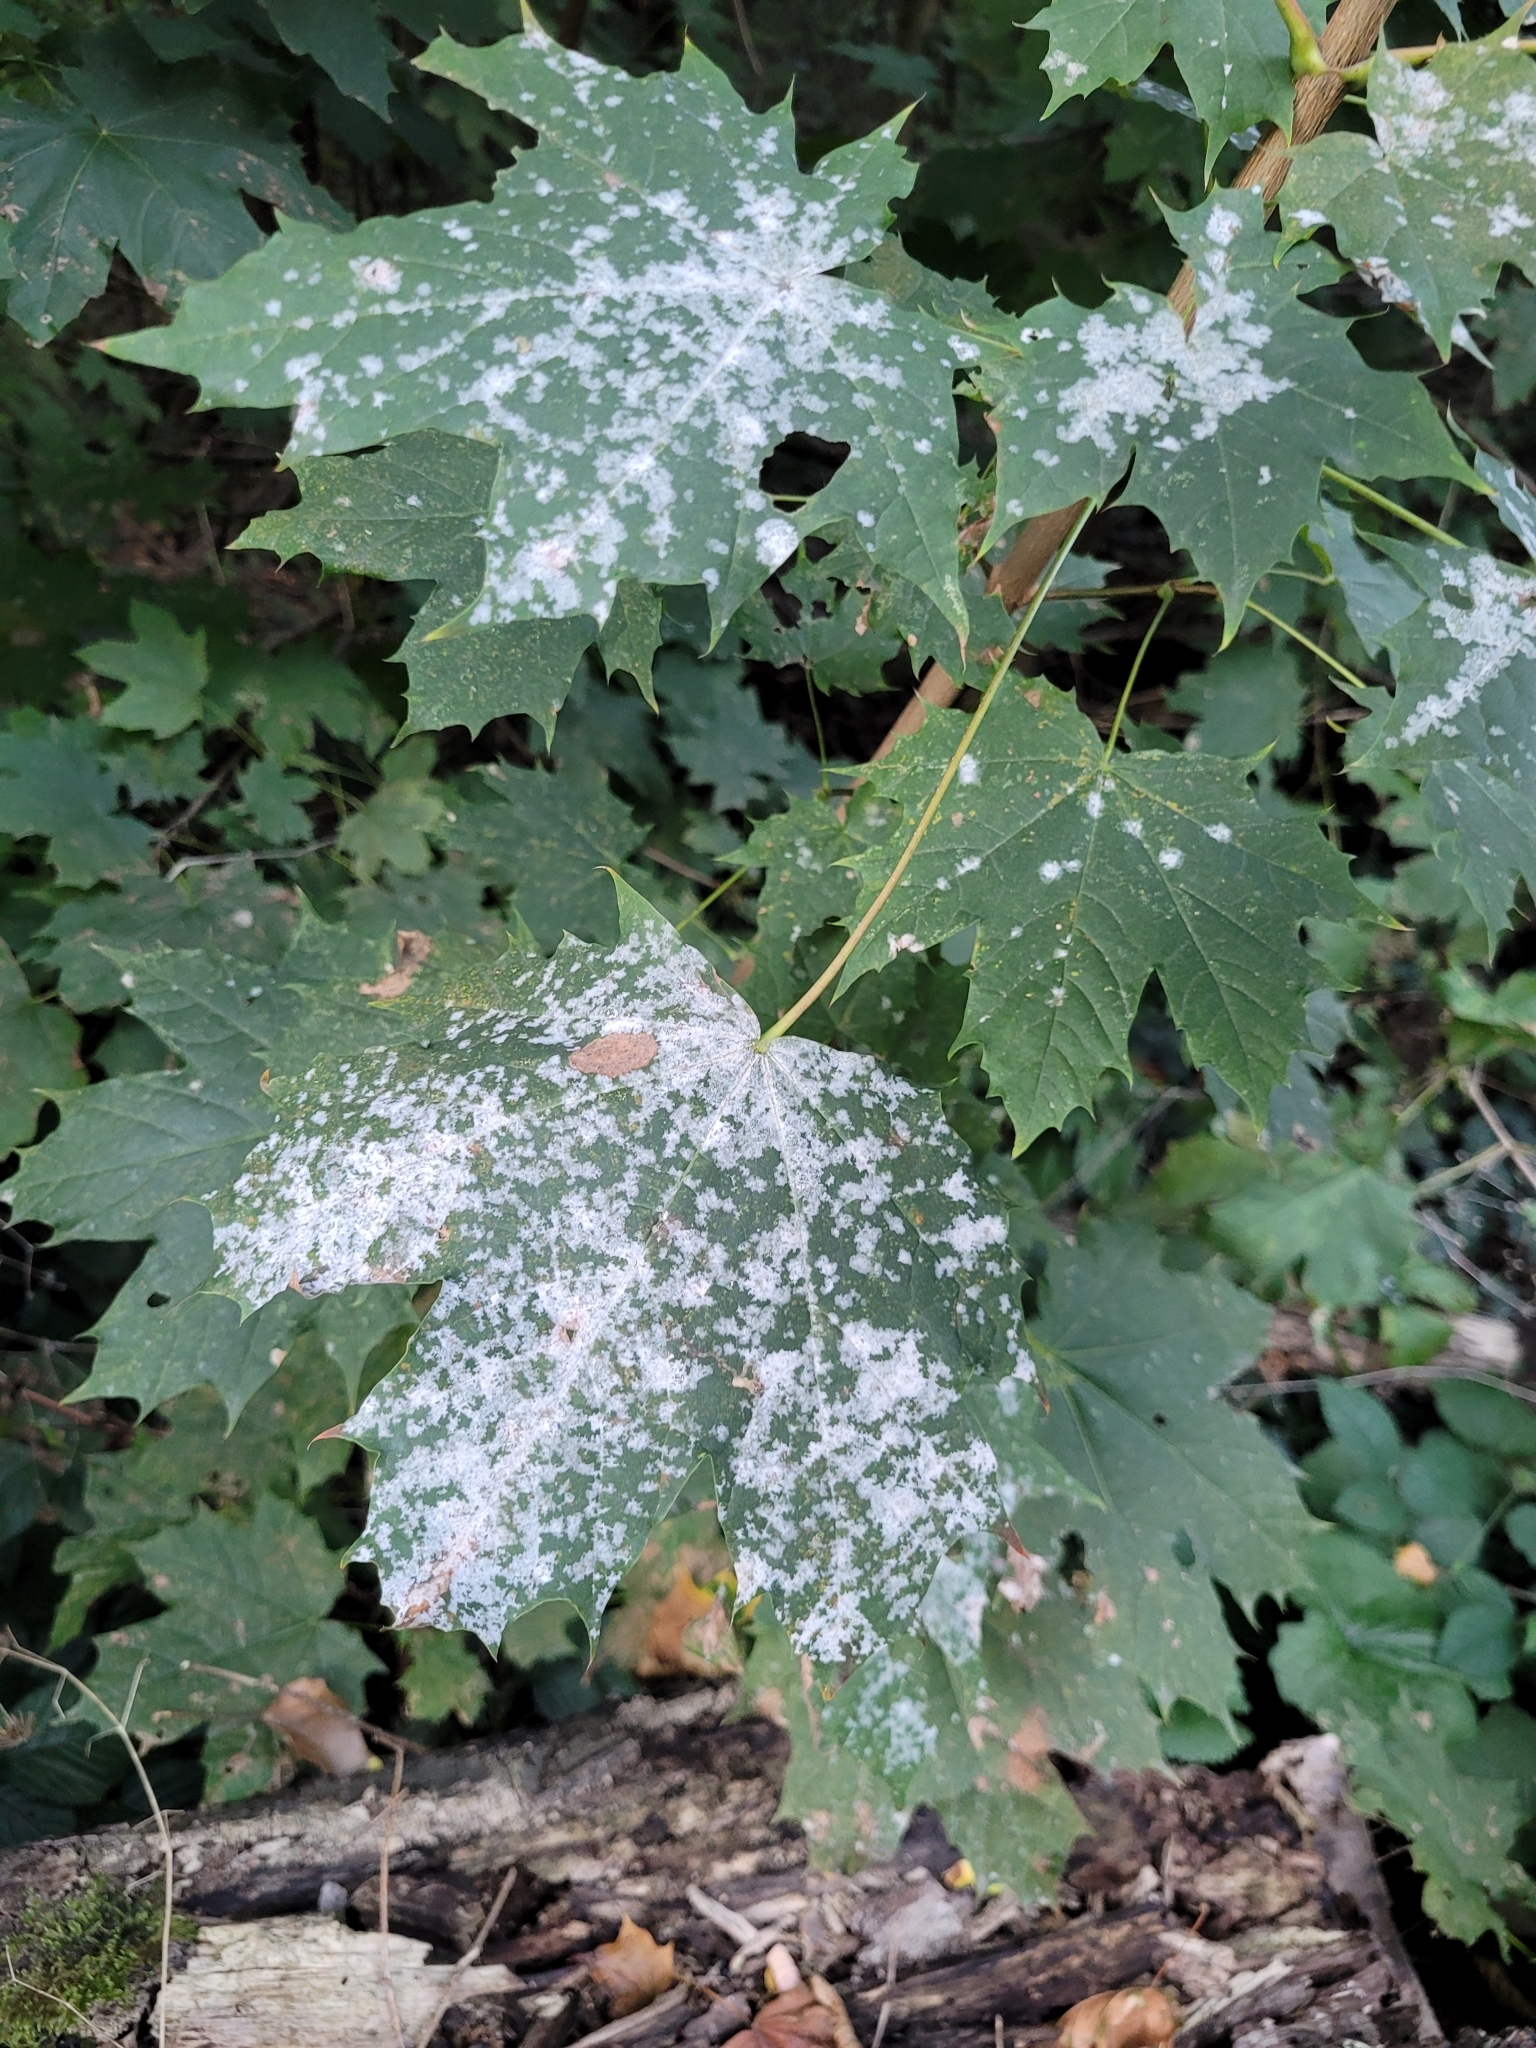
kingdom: Fungi
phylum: Ascomycota
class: Leotiomycetes
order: Helotiales
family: Erysiphaceae
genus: Sawadaea
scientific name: Sawadaea tulasnei
